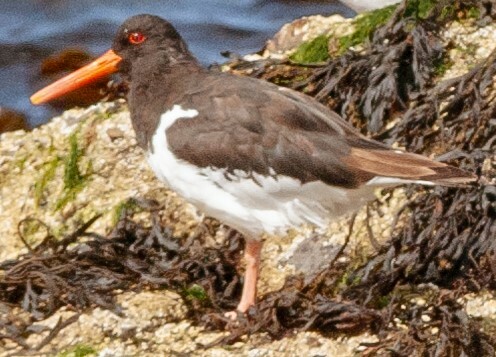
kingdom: Animalia
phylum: Chordata
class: Aves
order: Charadriiformes
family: Haematopodidae
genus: Haematopus
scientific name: Haematopus ostralegus
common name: Eurasian oystercatcher
